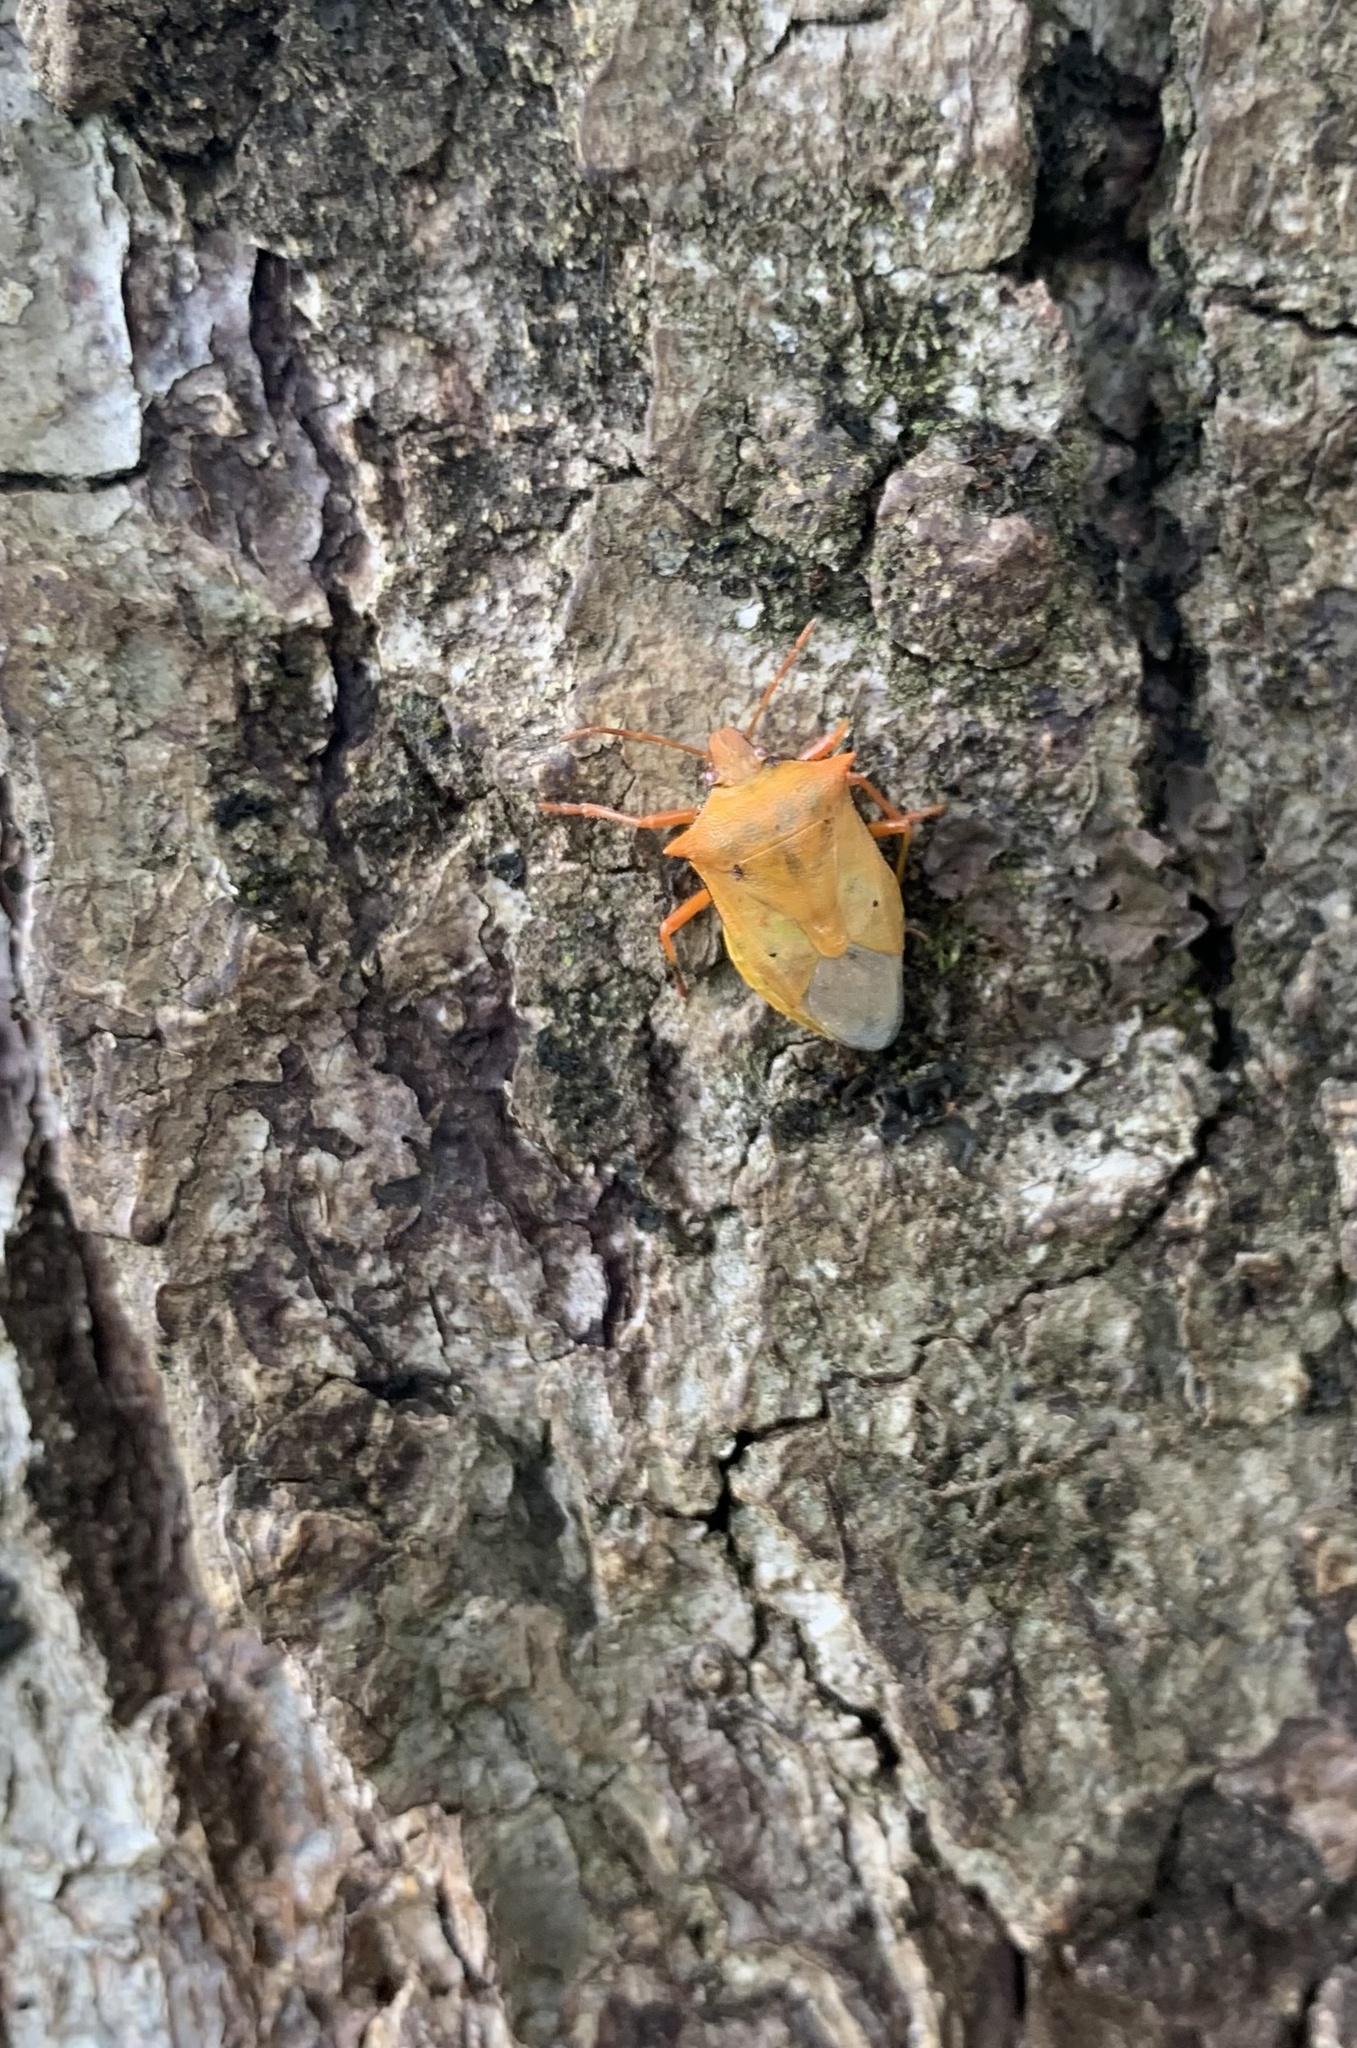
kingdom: Animalia
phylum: Arthropoda
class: Insecta
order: Hemiptera
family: Pentatomidae
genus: Brontocoris
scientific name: Brontocoris
